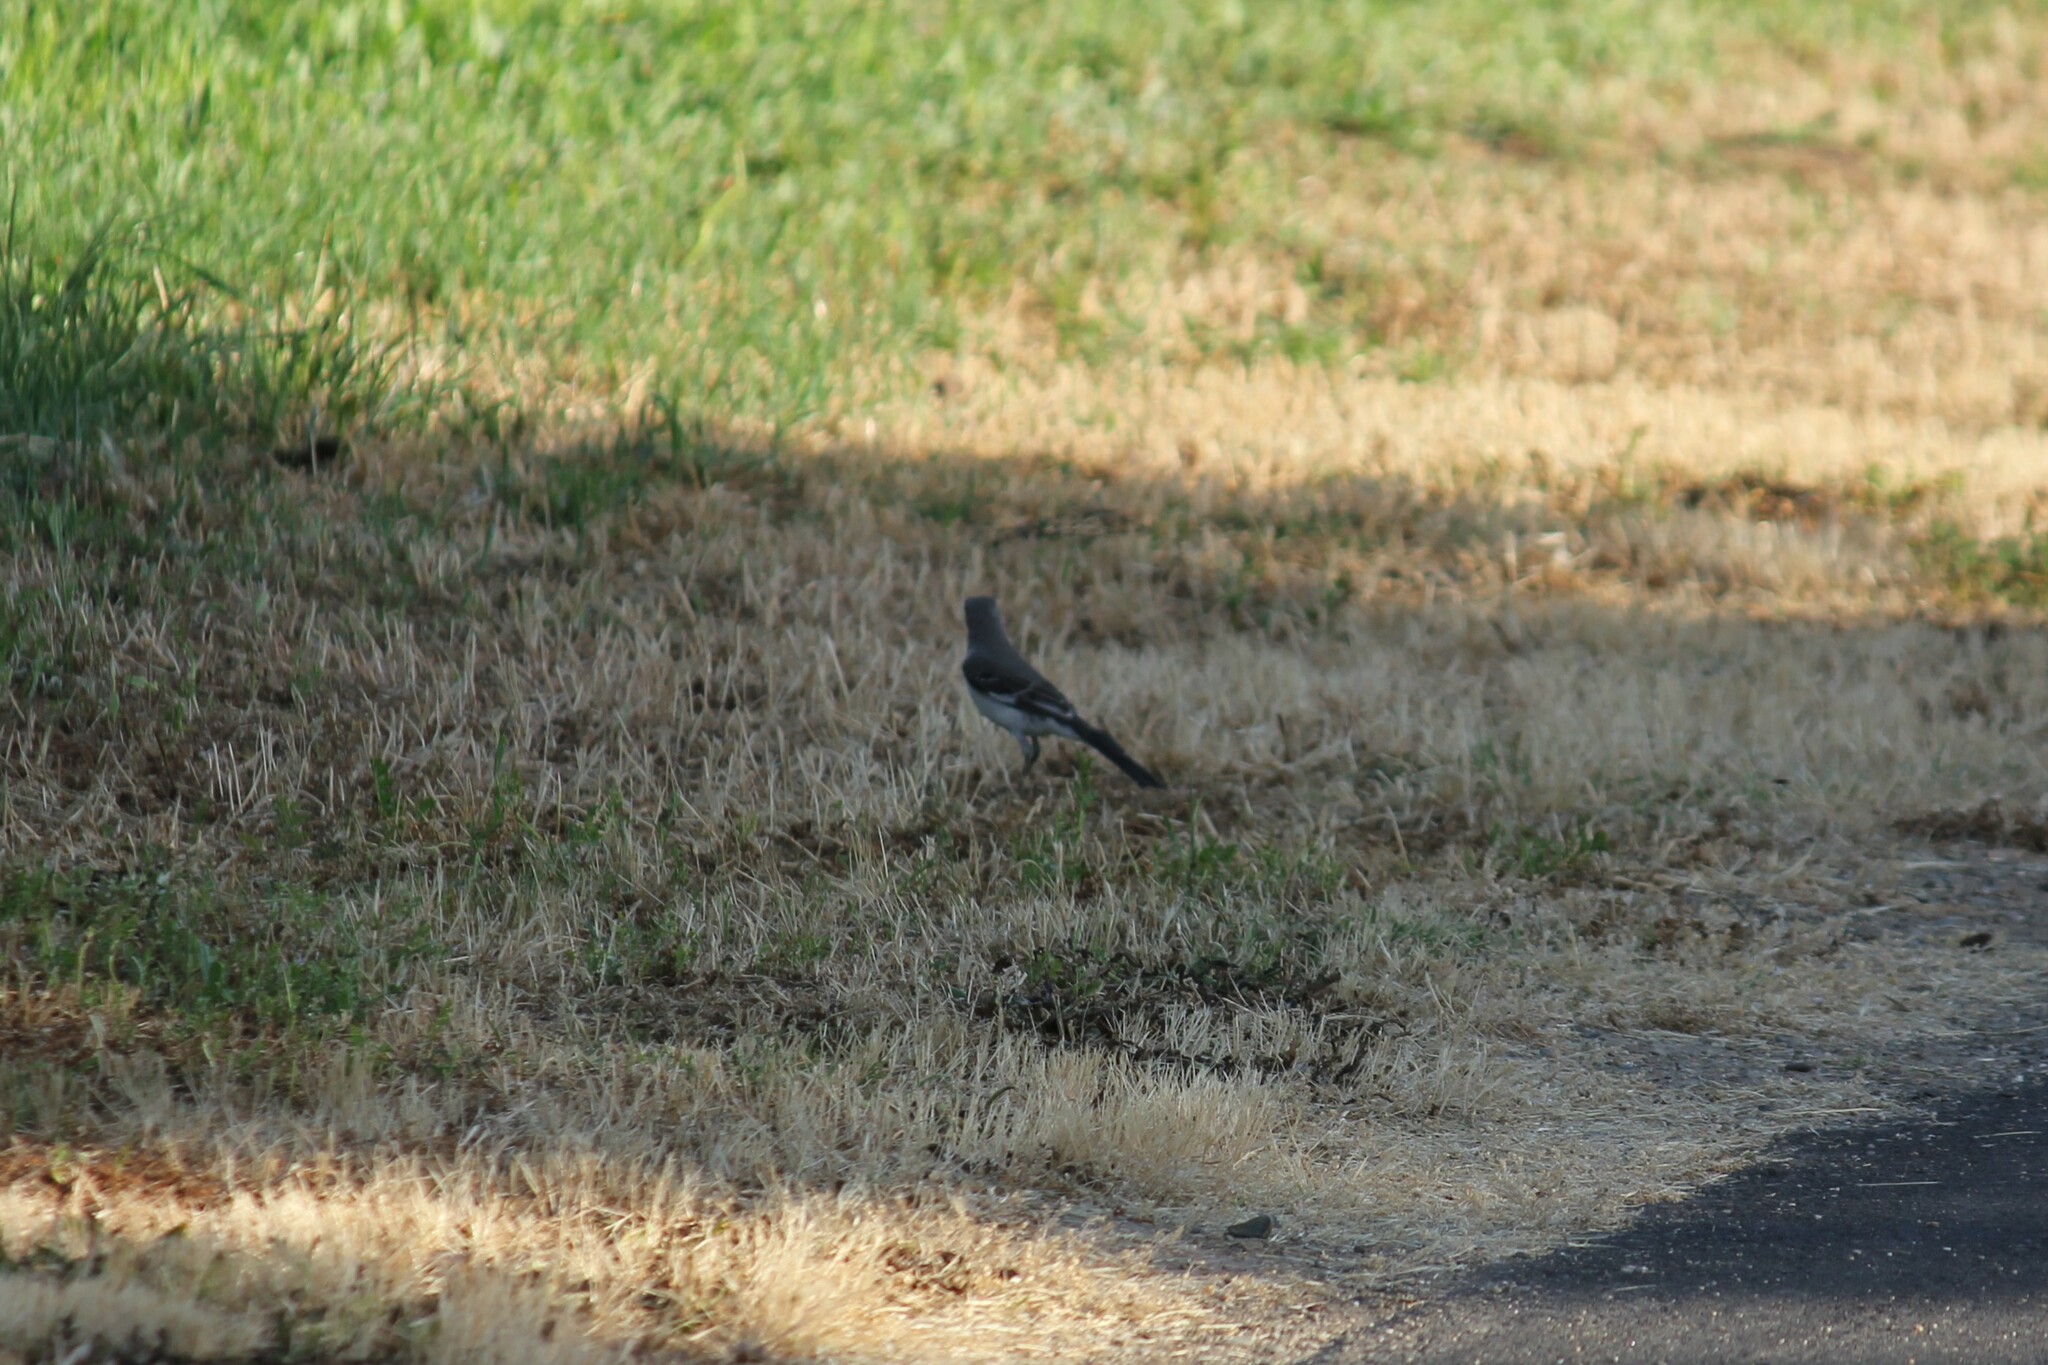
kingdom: Animalia
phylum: Chordata
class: Aves
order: Passeriformes
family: Mimidae
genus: Mimus
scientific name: Mimus polyglottos
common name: Northern mockingbird
